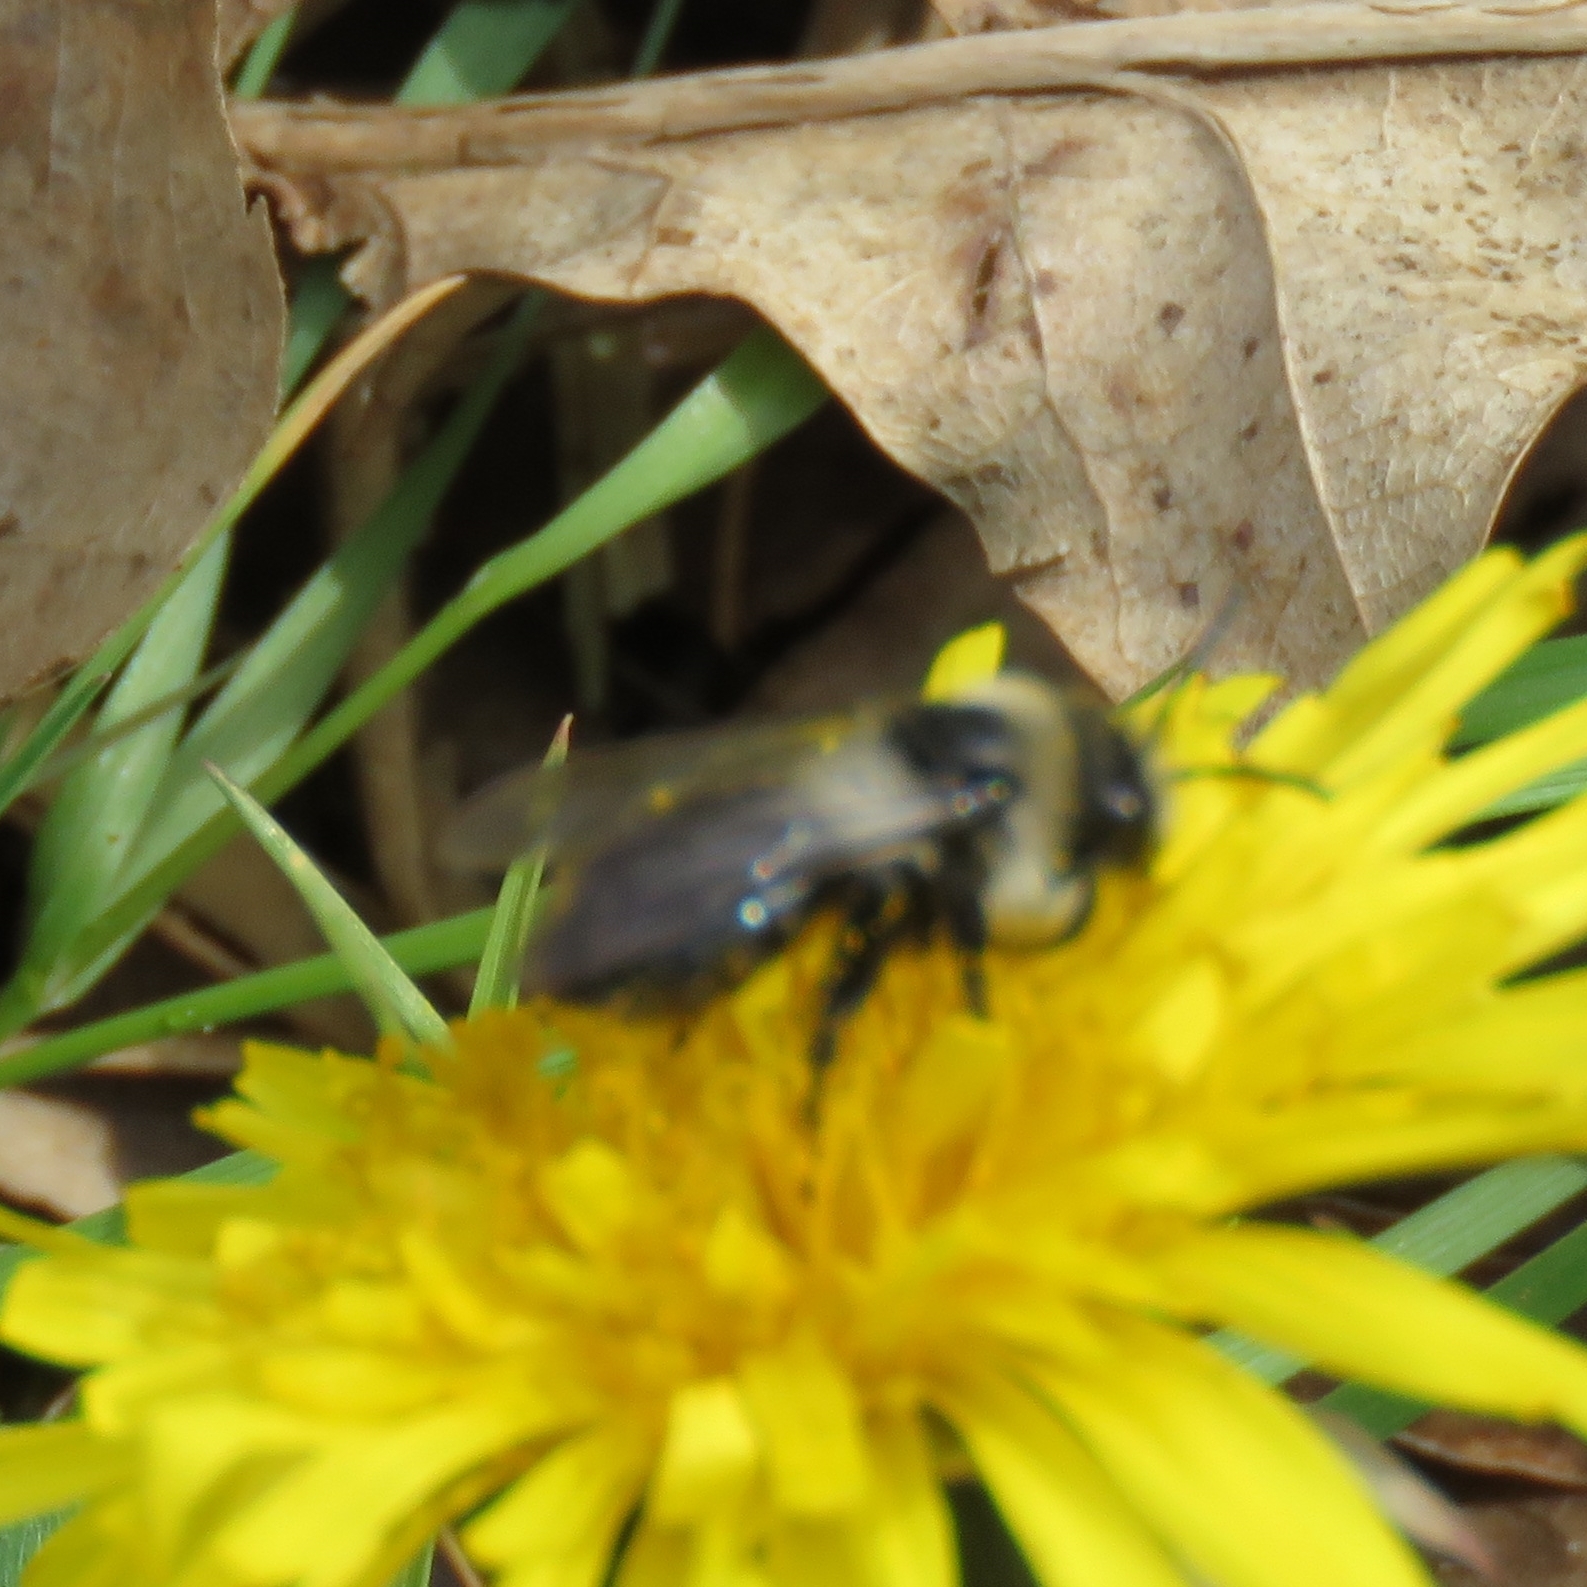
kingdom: Animalia
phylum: Arthropoda
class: Insecta
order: Hymenoptera
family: Andrenidae
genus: Andrena
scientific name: Andrena cineraria
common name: Ashy mining bee
